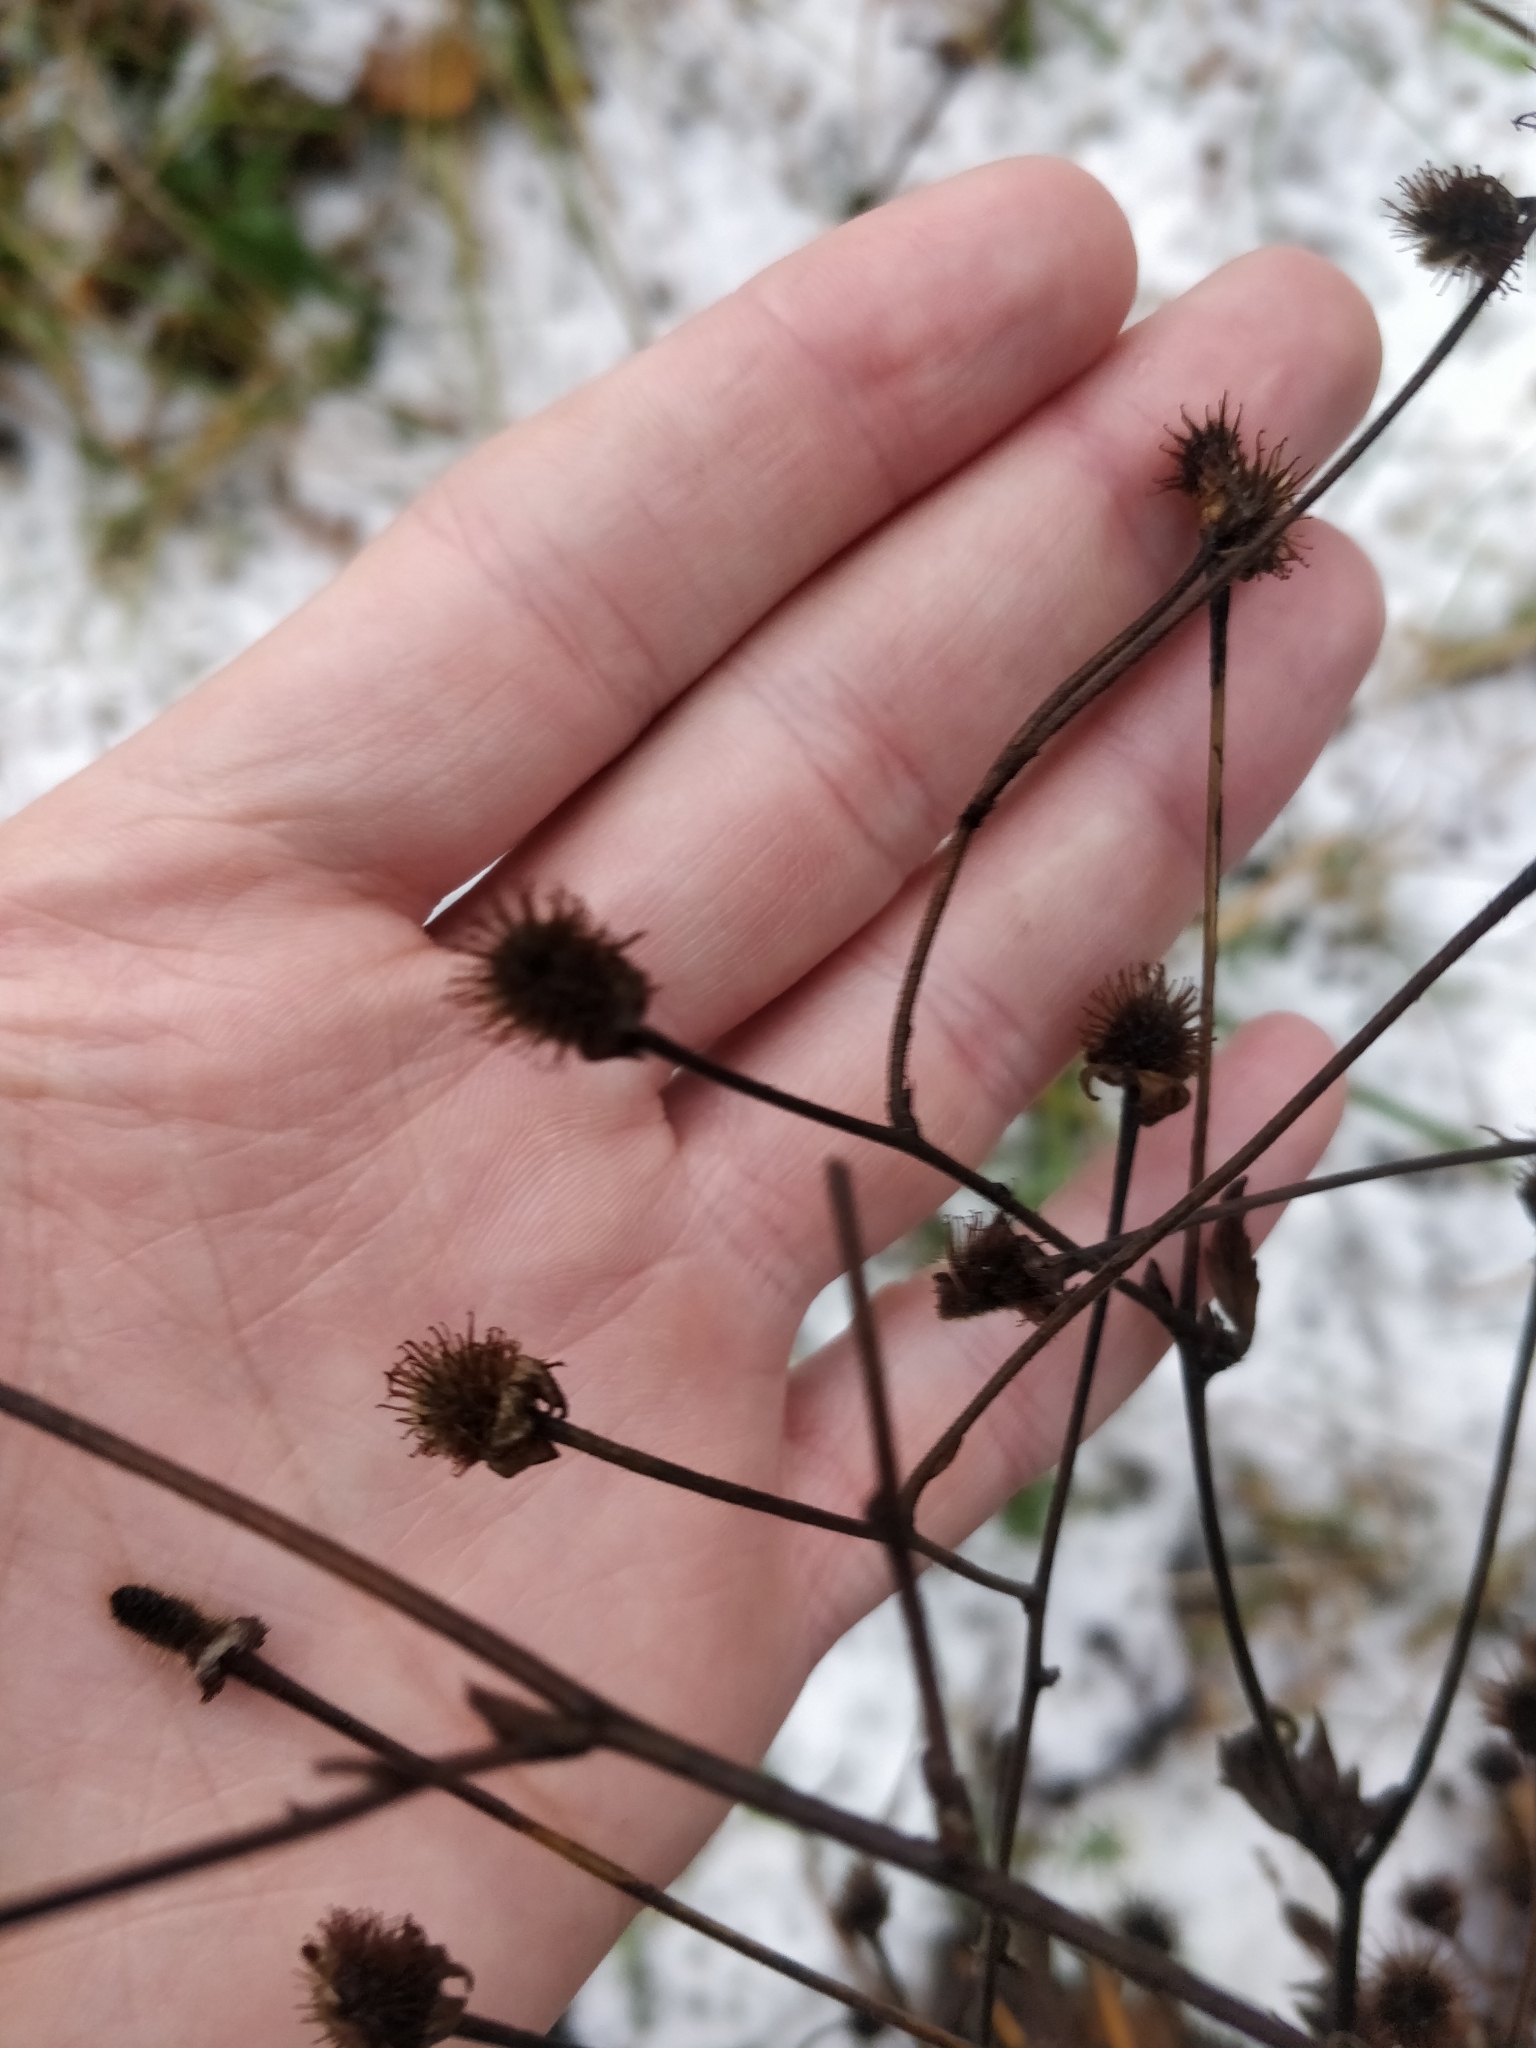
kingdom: Plantae
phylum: Tracheophyta
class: Magnoliopsida
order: Rosales
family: Rosaceae
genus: Geum
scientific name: Geum aleppicum
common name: Yellow avens
